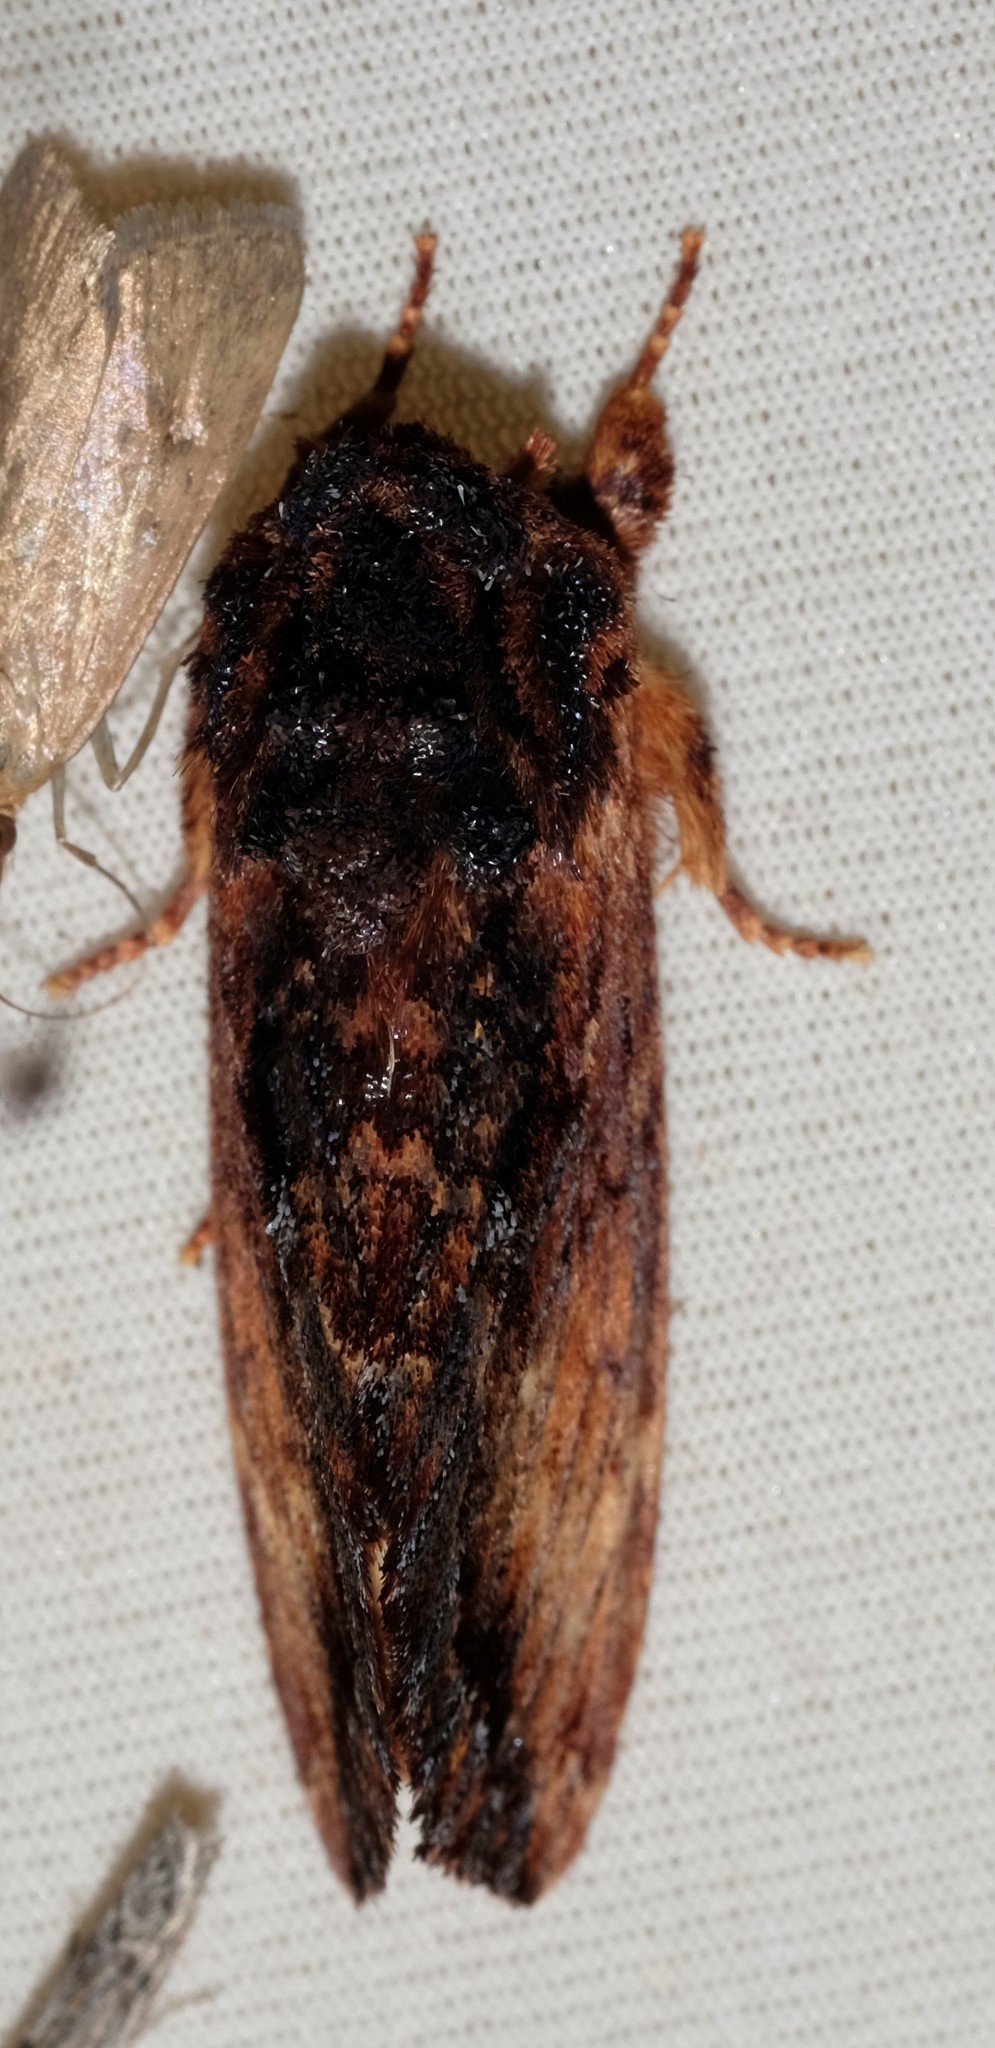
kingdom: Animalia
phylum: Arthropoda
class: Insecta
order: Lepidoptera
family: Notodontidae
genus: Sorama
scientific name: Sorama bicolor
